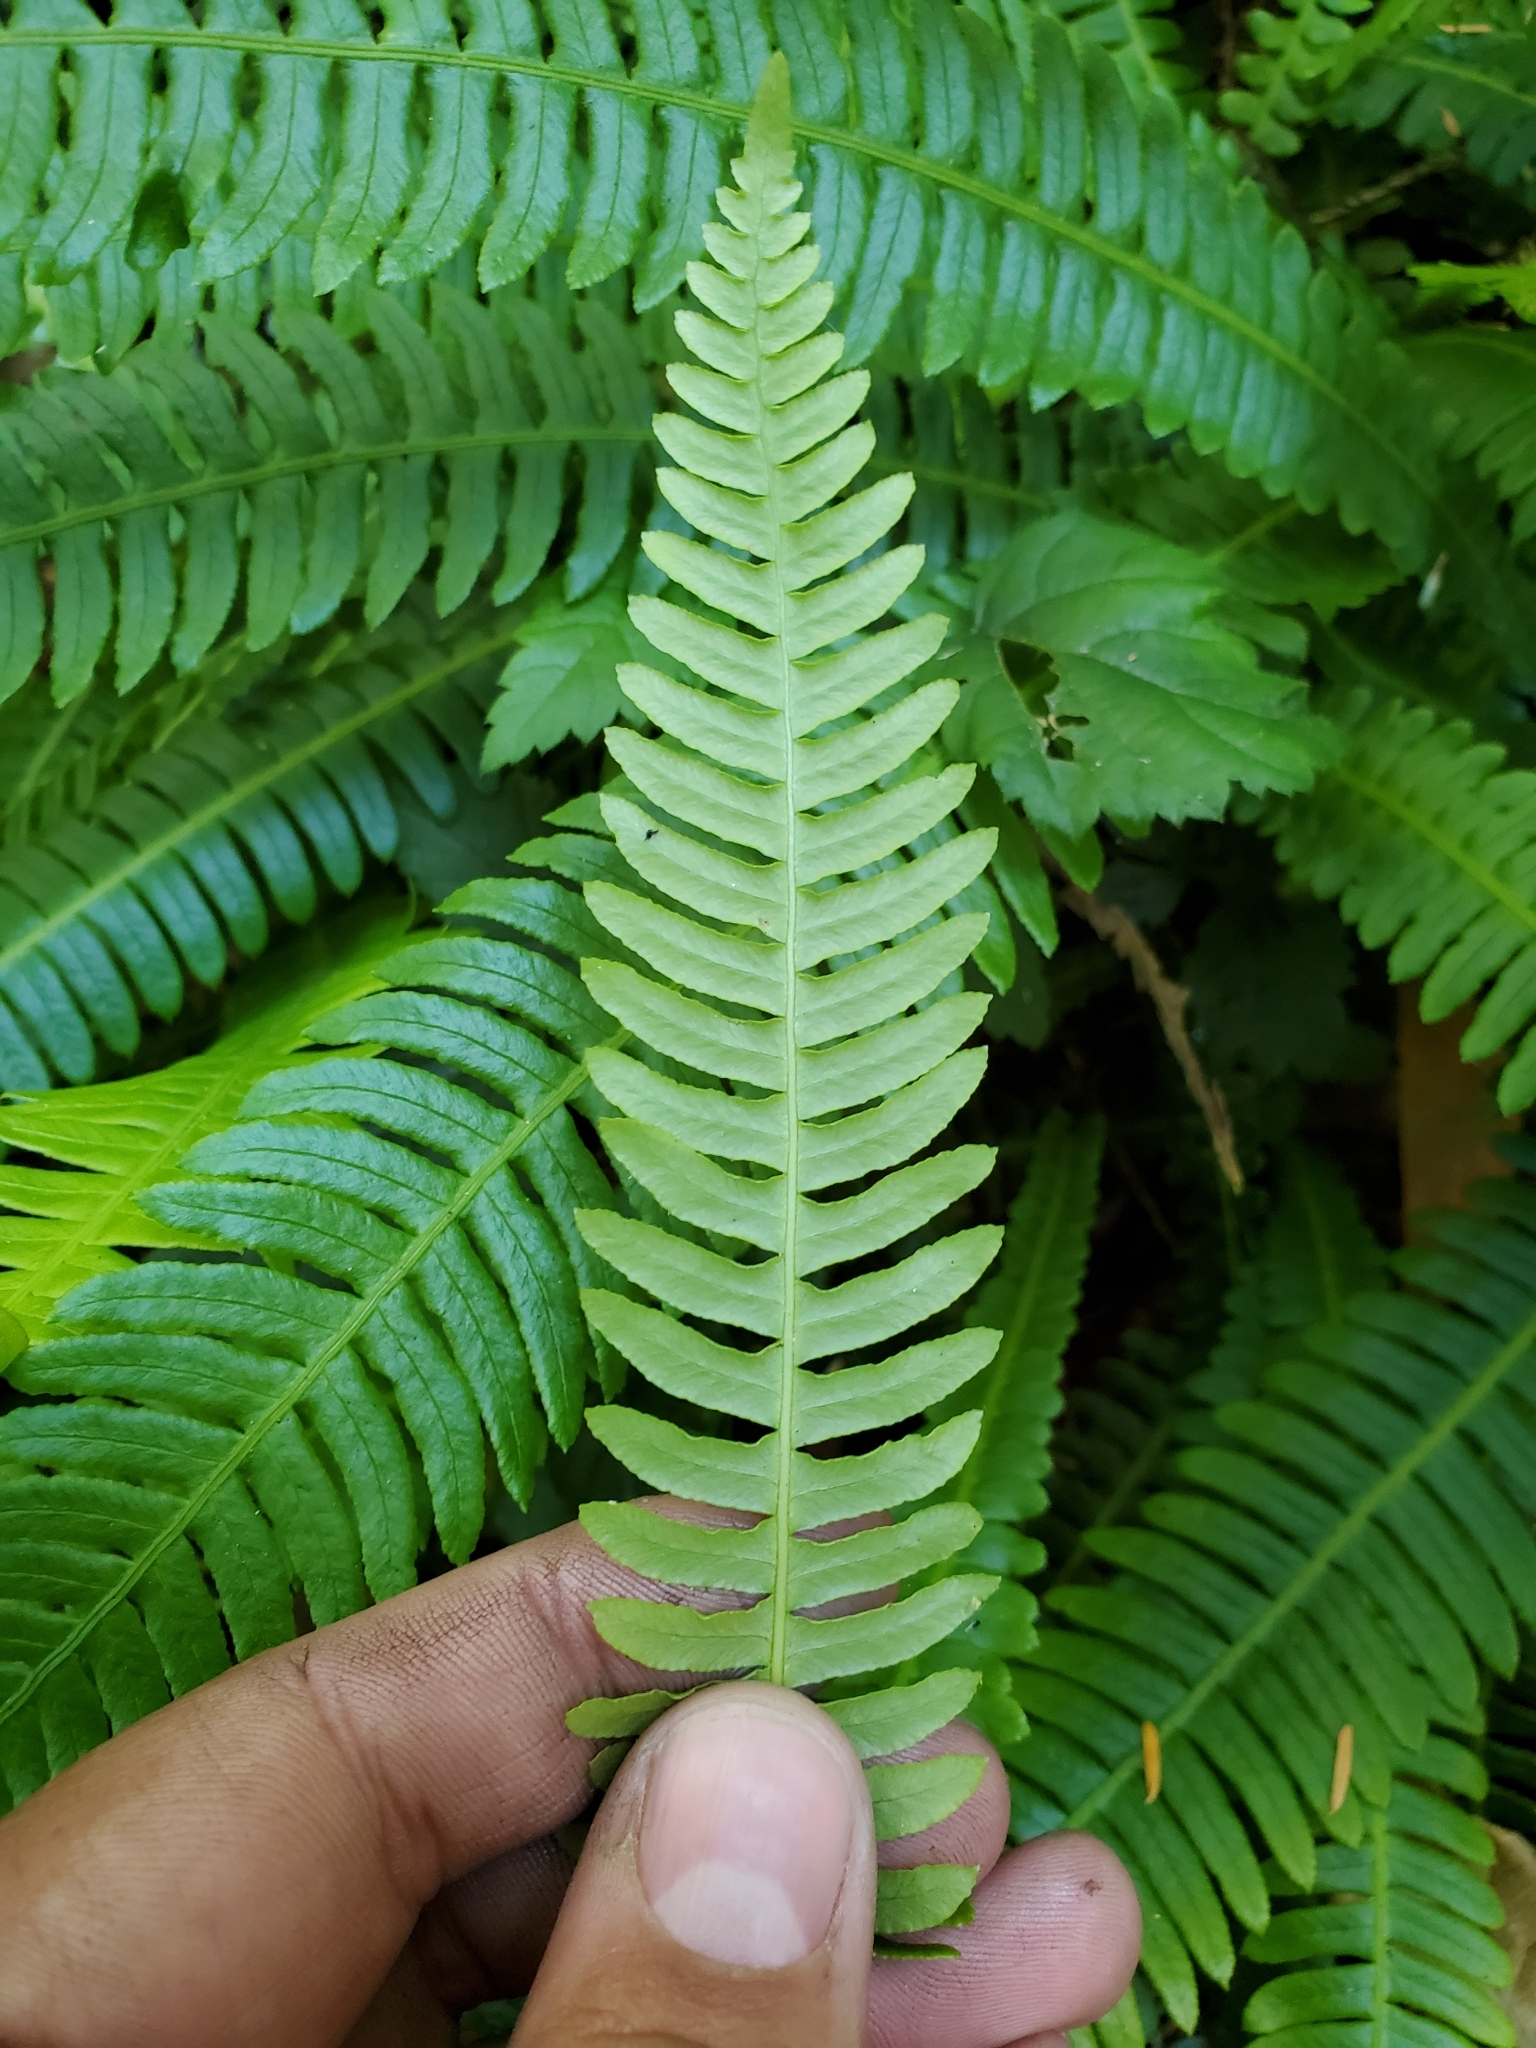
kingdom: Plantae
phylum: Tracheophyta
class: Polypodiopsida
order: Polypodiales
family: Blechnaceae
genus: Struthiopteris
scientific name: Struthiopteris spicant
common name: Deer fern
